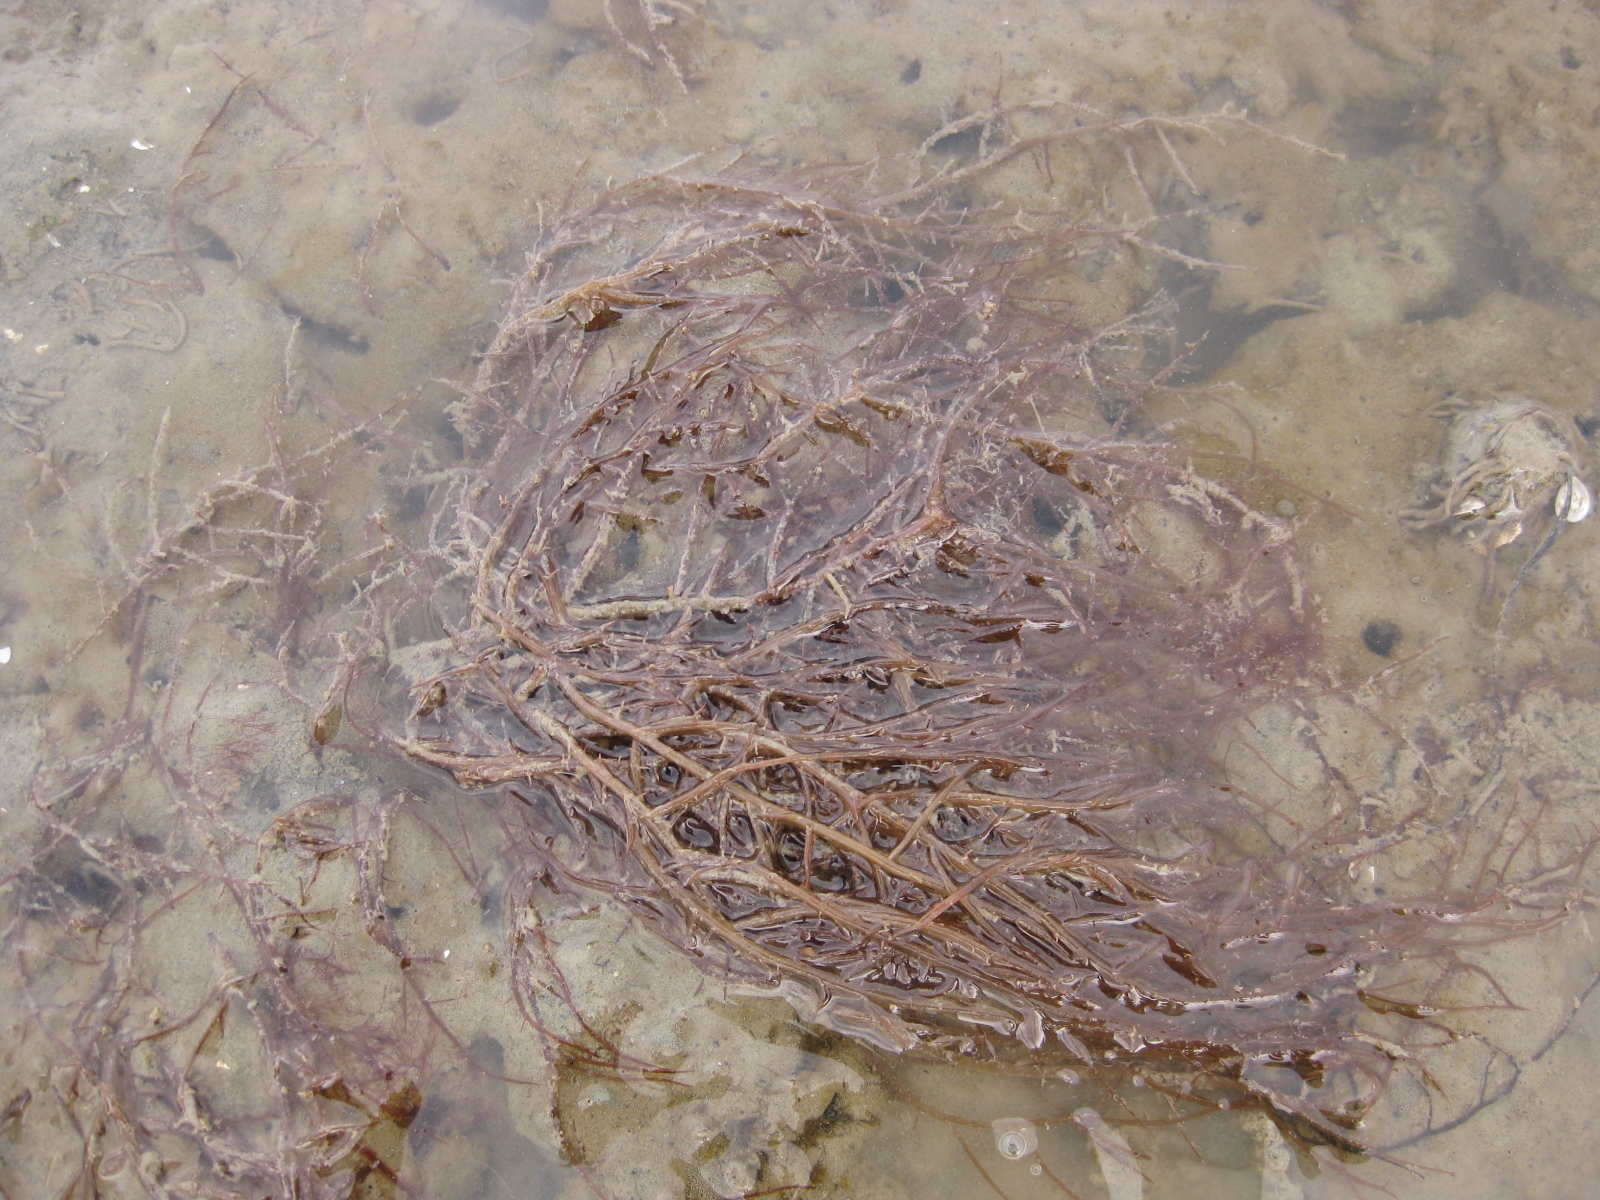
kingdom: Plantae
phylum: Rhodophyta
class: Florideophyceae
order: Gracilariales
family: Gracilariaceae
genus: Gracilaria
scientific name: Gracilaria chilensis
